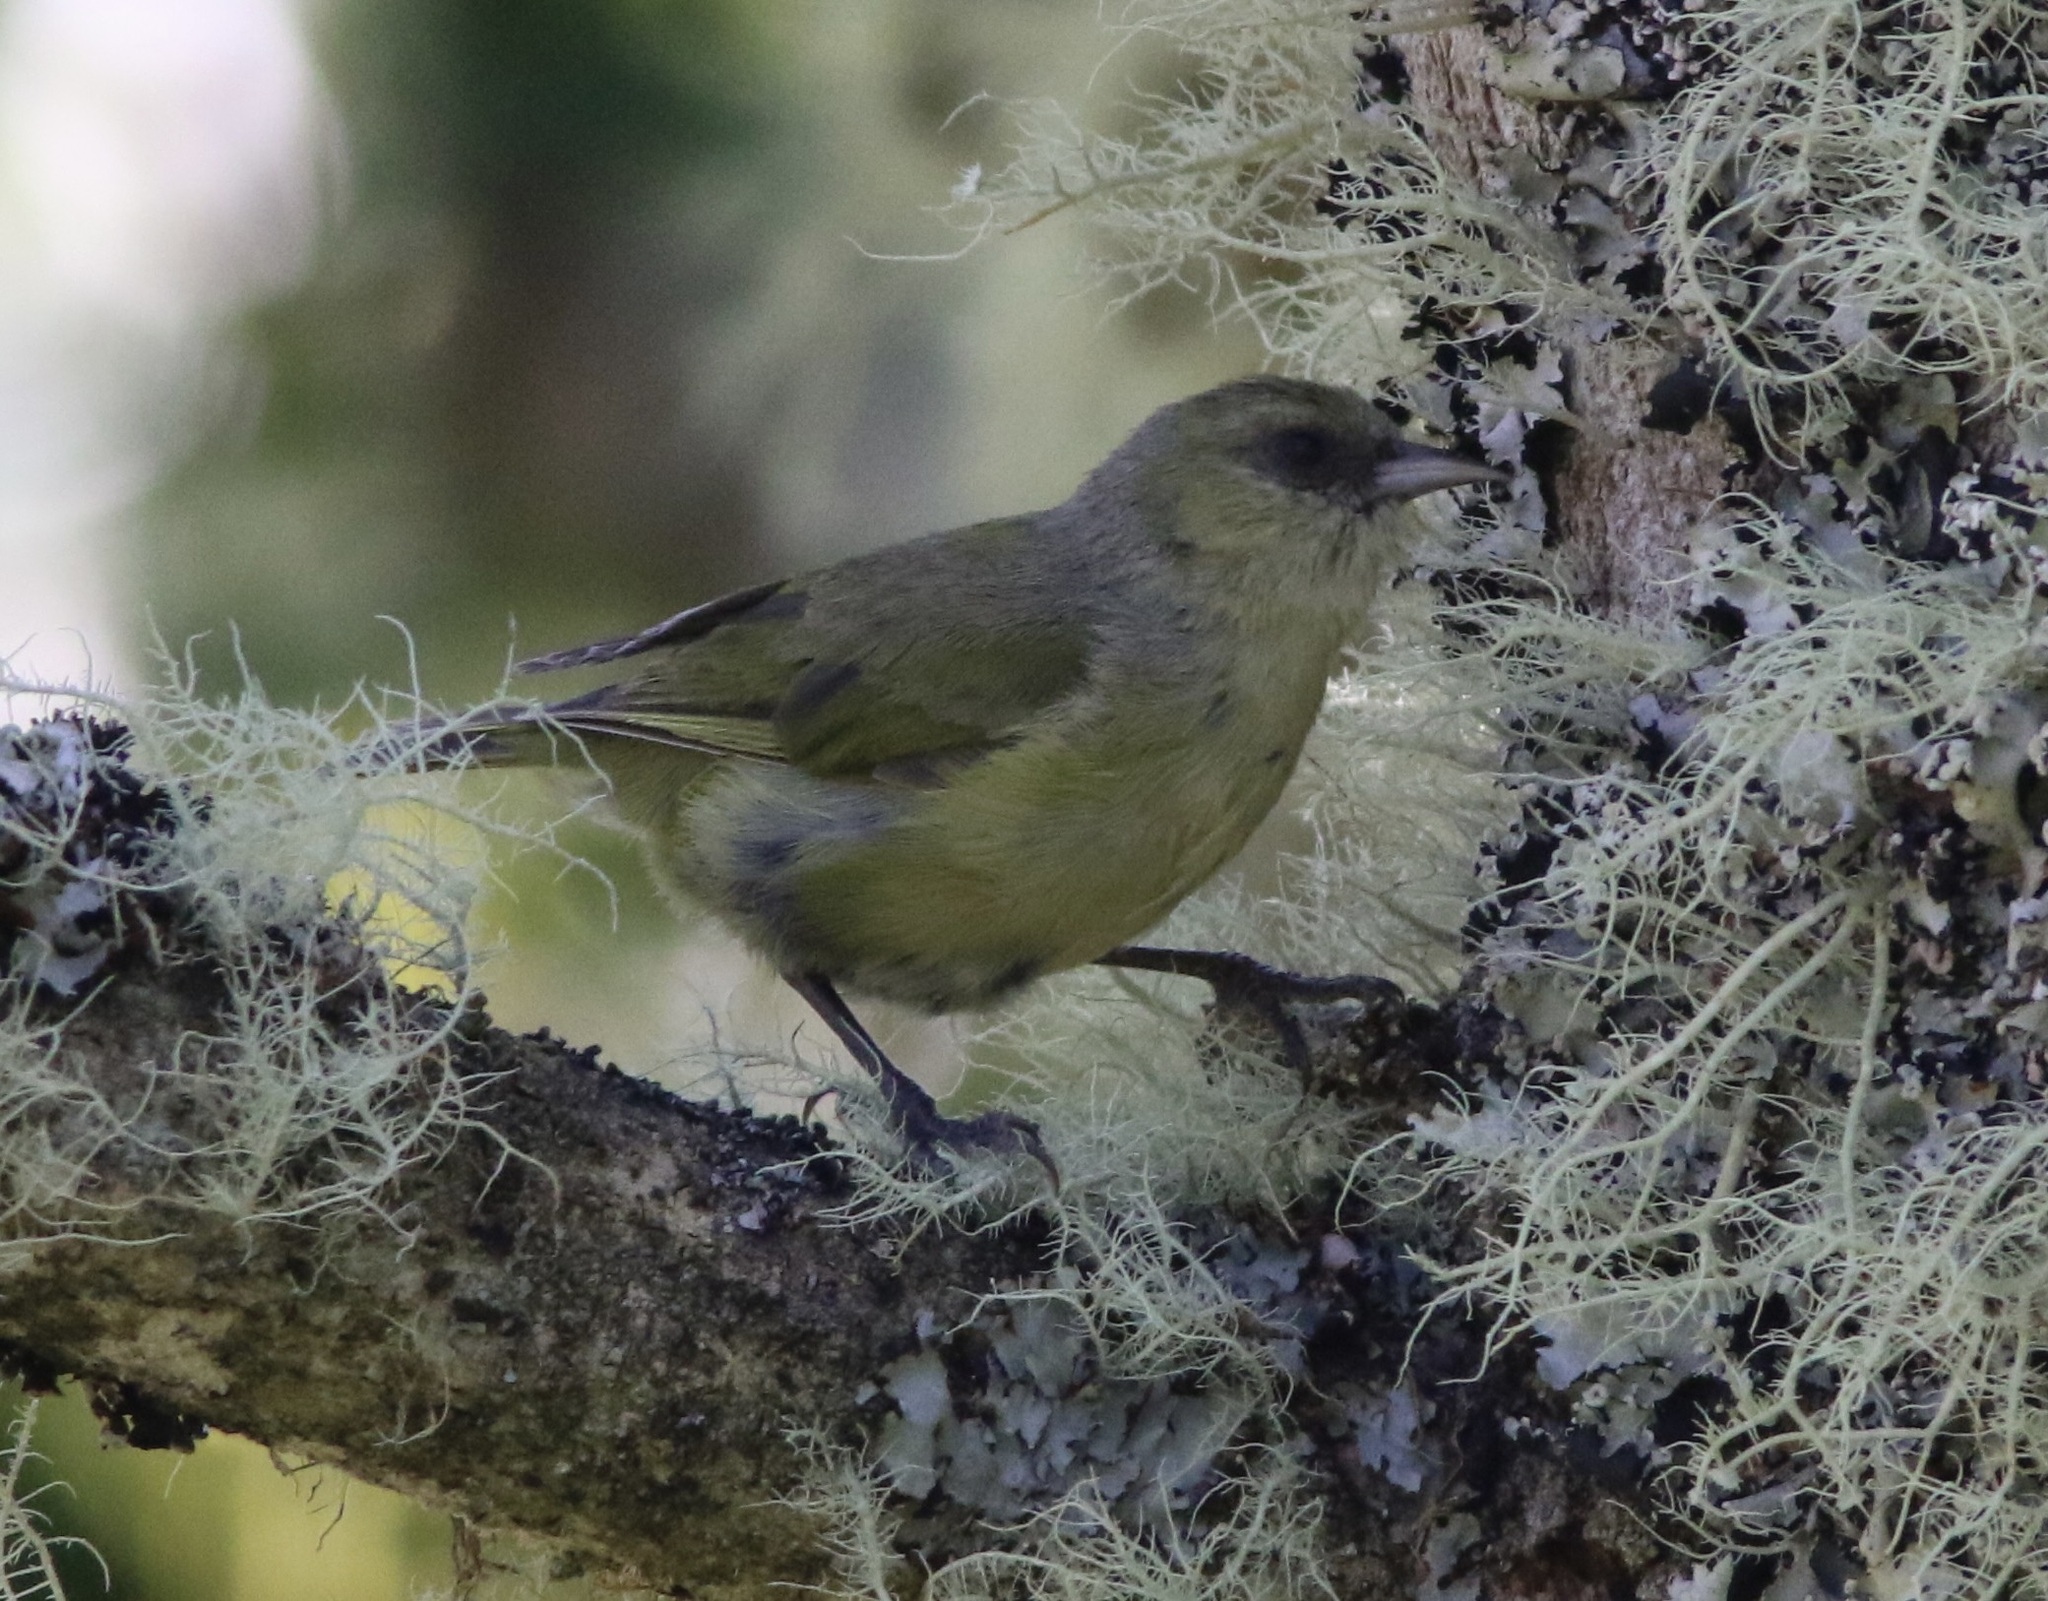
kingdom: Animalia
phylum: Chordata
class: Aves
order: Passeriformes
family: Fringillidae
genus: Loxops
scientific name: Loxops mana
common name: Hawaii creeper
